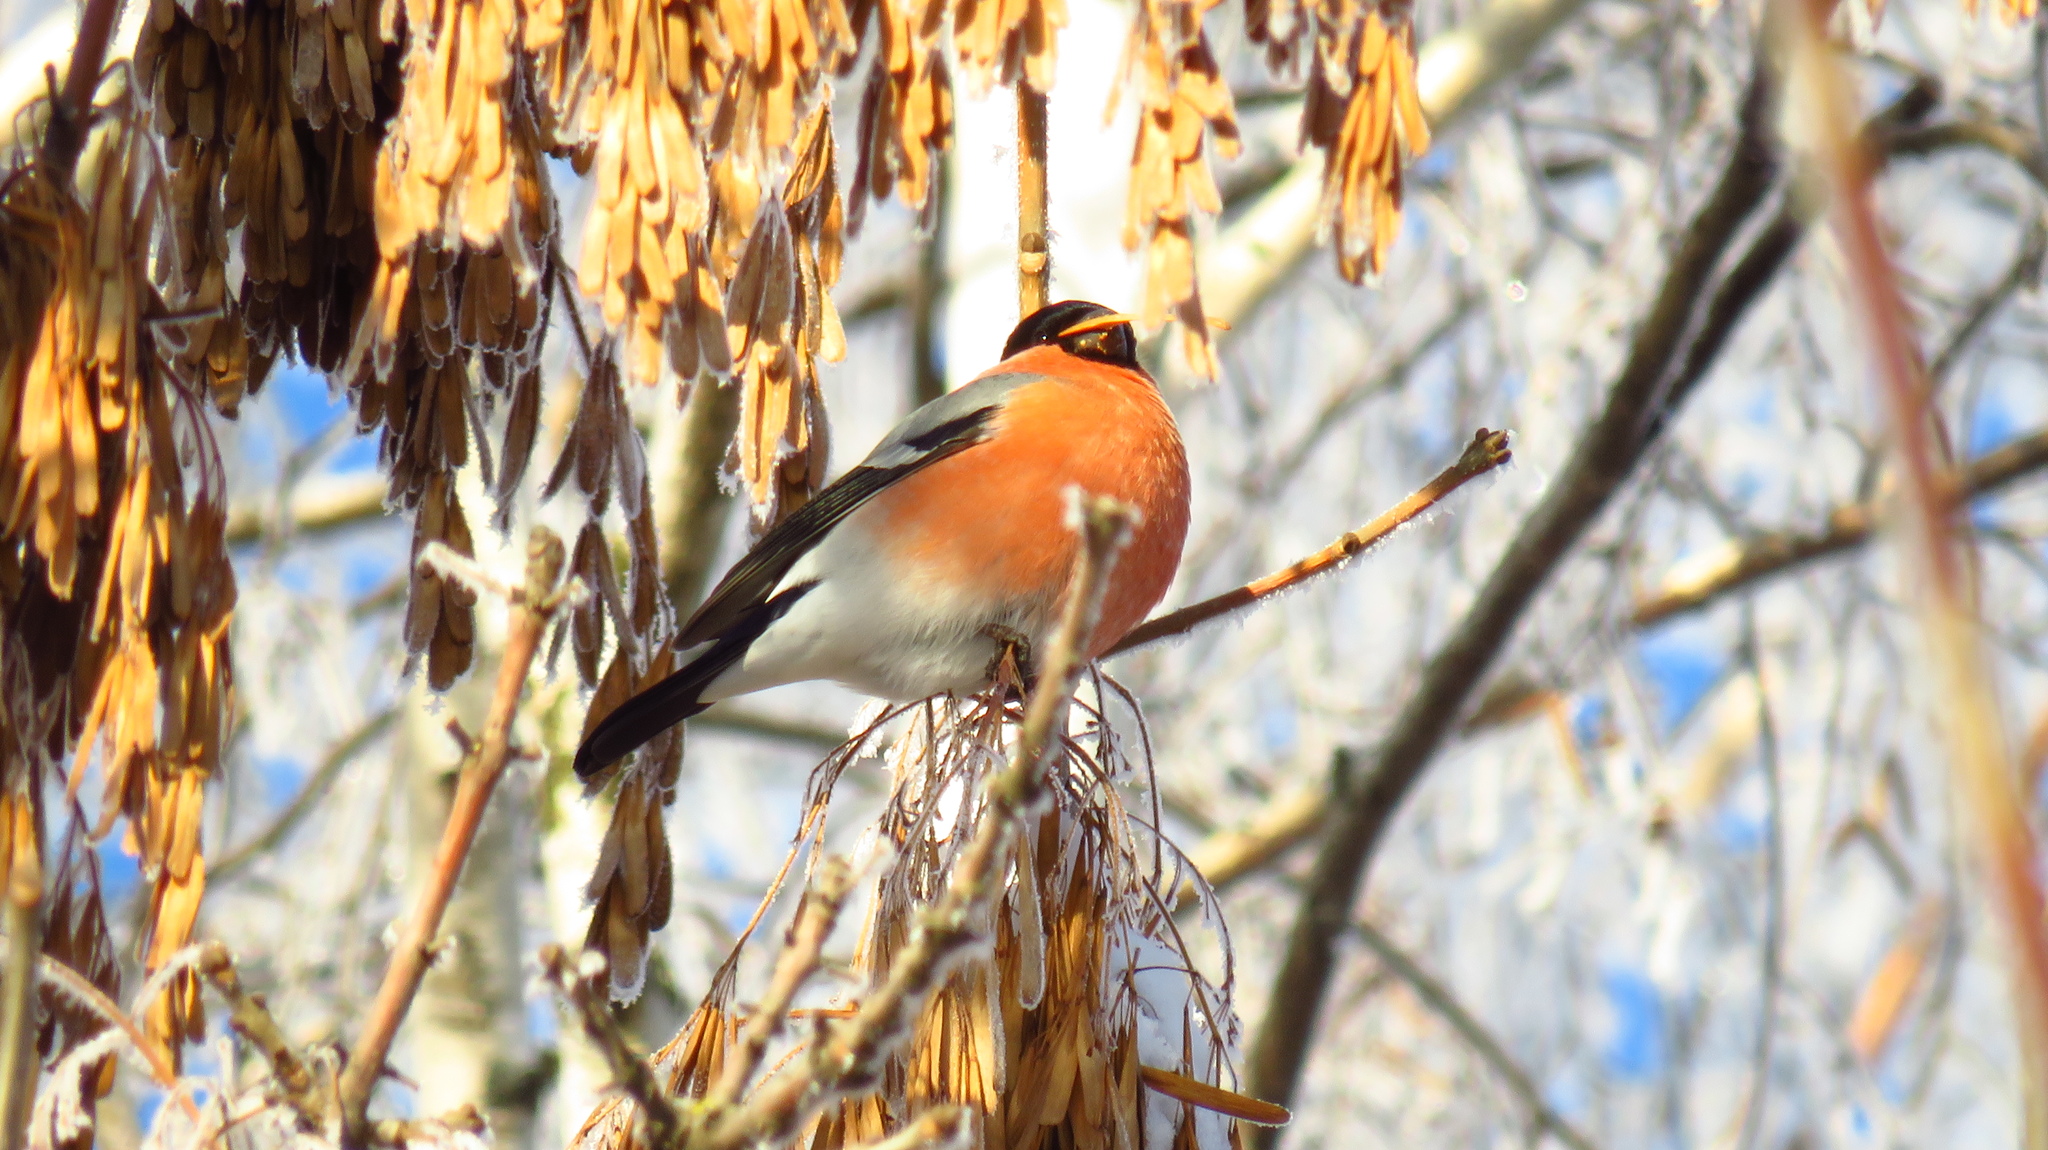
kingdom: Animalia
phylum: Chordata
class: Aves
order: Passeriformes
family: Fringillidae
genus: Pyrrhula
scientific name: Pyrrhula pyrrhula
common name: Eurasian bullfinch
